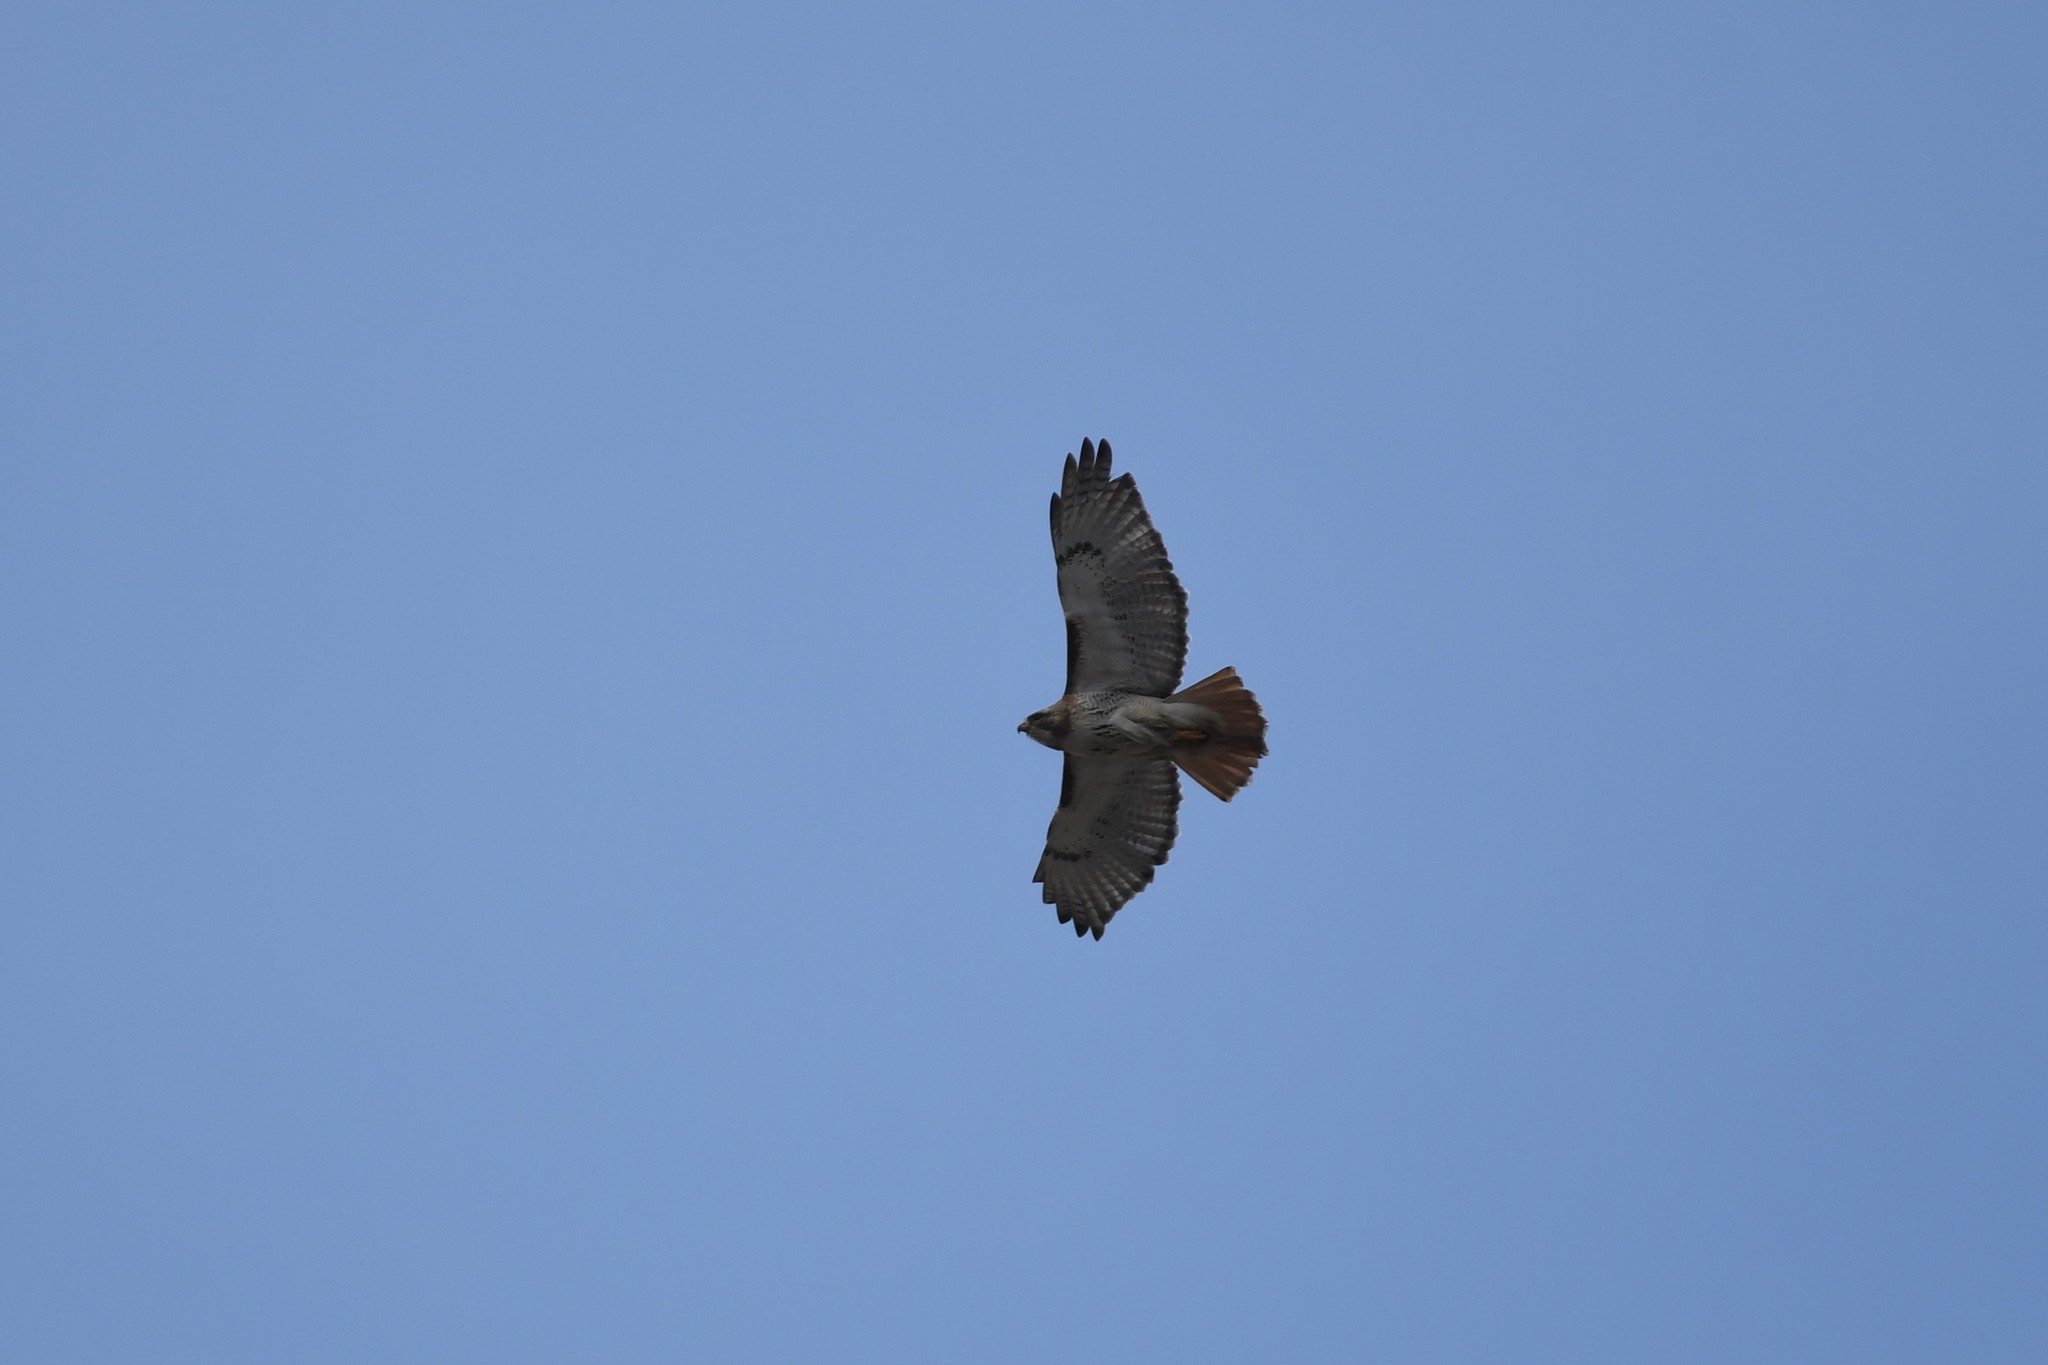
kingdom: Animalia
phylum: Chordata
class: Aves
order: Accipitriformes
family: Accipitridae
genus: Buteo
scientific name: Buteo jamaicensis
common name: Red-tailed hawk
